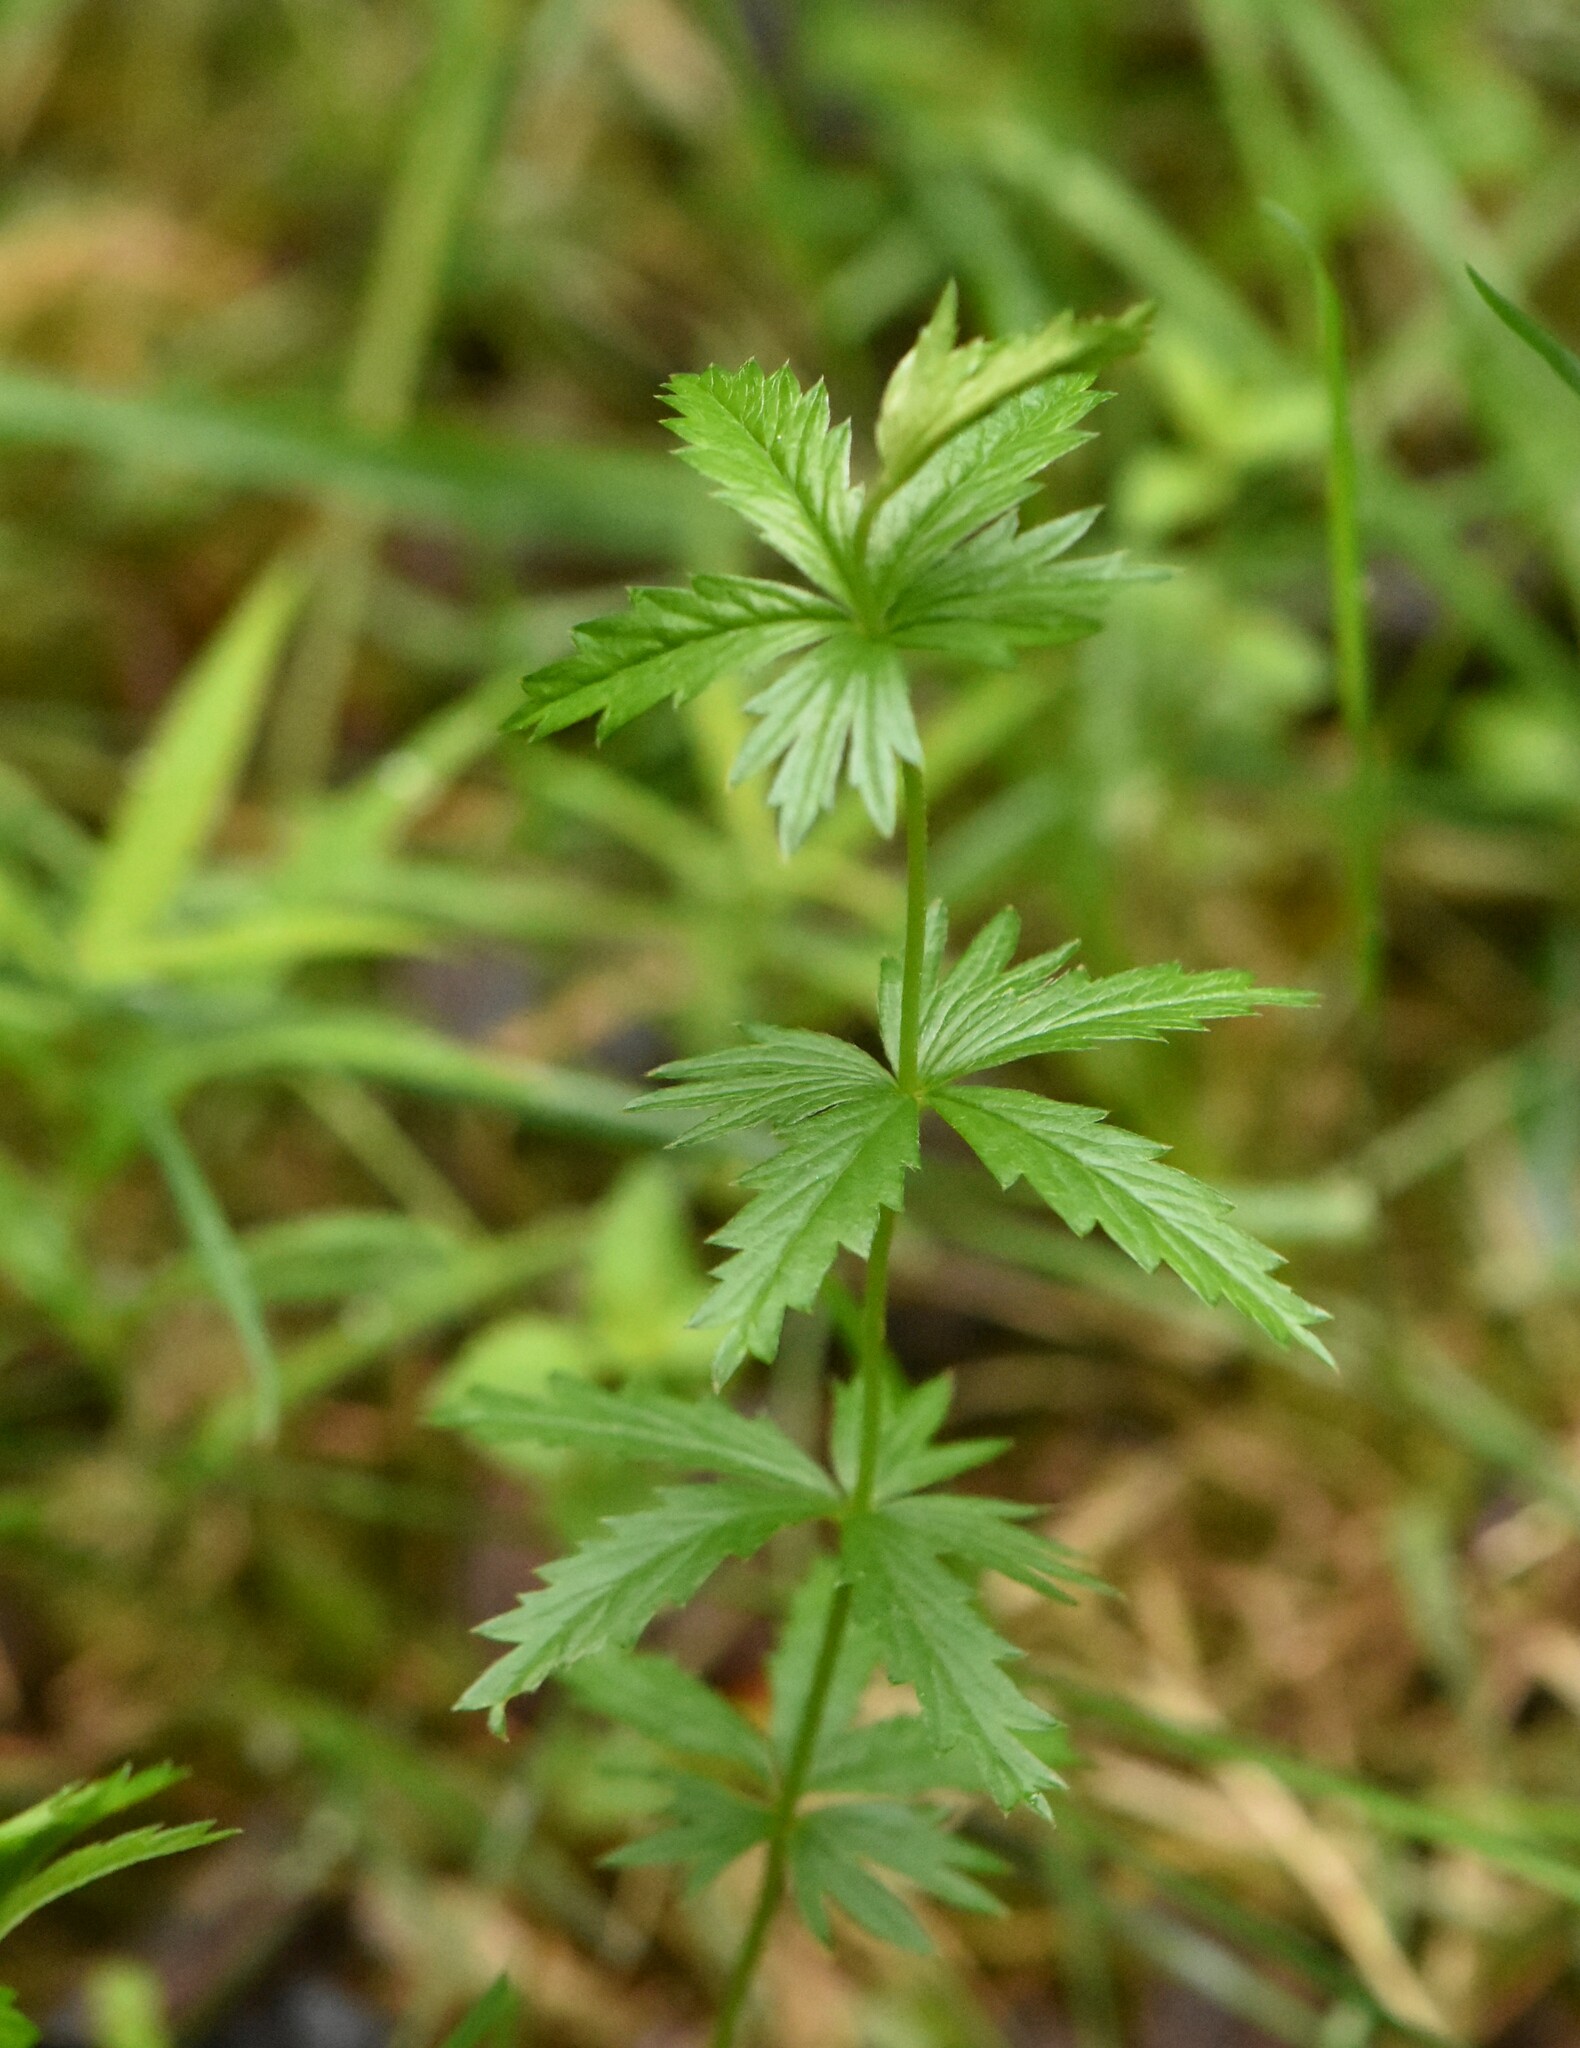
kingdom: Plantae
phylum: Tracheophyta
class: Magnoliopsida
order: Rosales
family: Rosaceae
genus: Potentilla
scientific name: Potentilla erecta
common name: Tormentil
